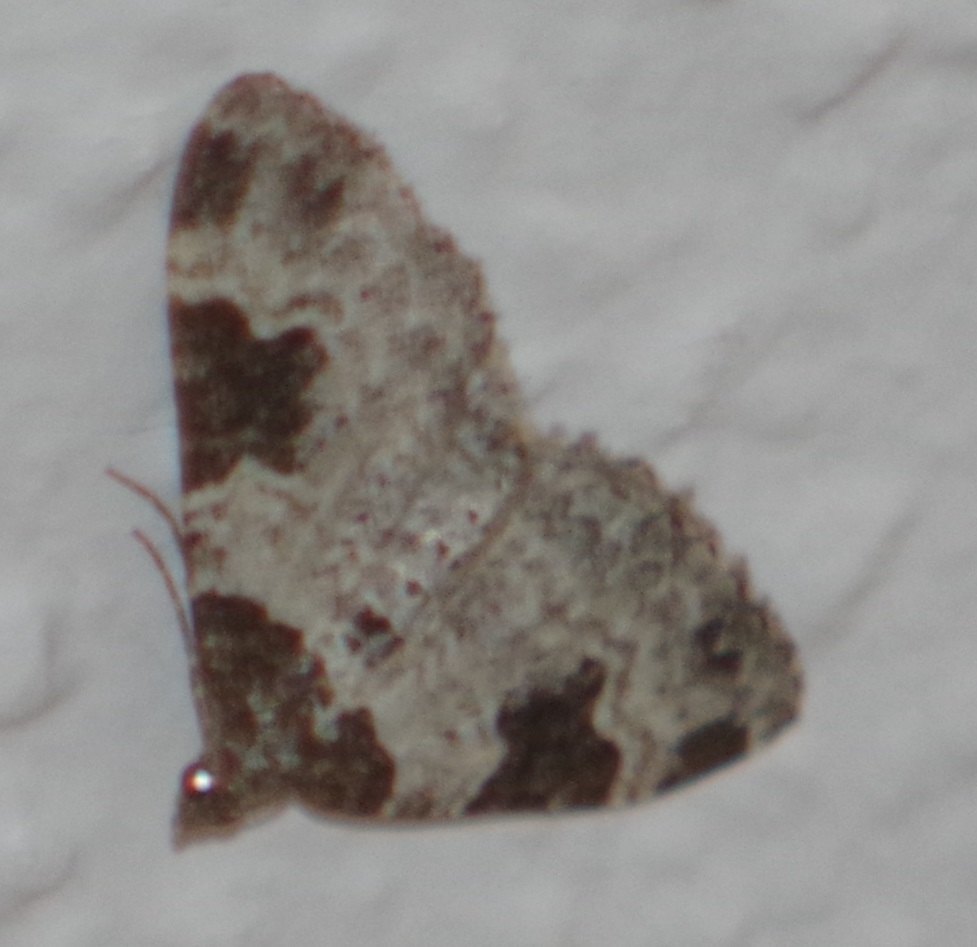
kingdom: Animalia
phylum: Arthropoda
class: Insecta
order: Lepidoptera
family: Geometridae
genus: Xanthorhoe
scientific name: Xanthorhoe fluctuata
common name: Garden carpet
